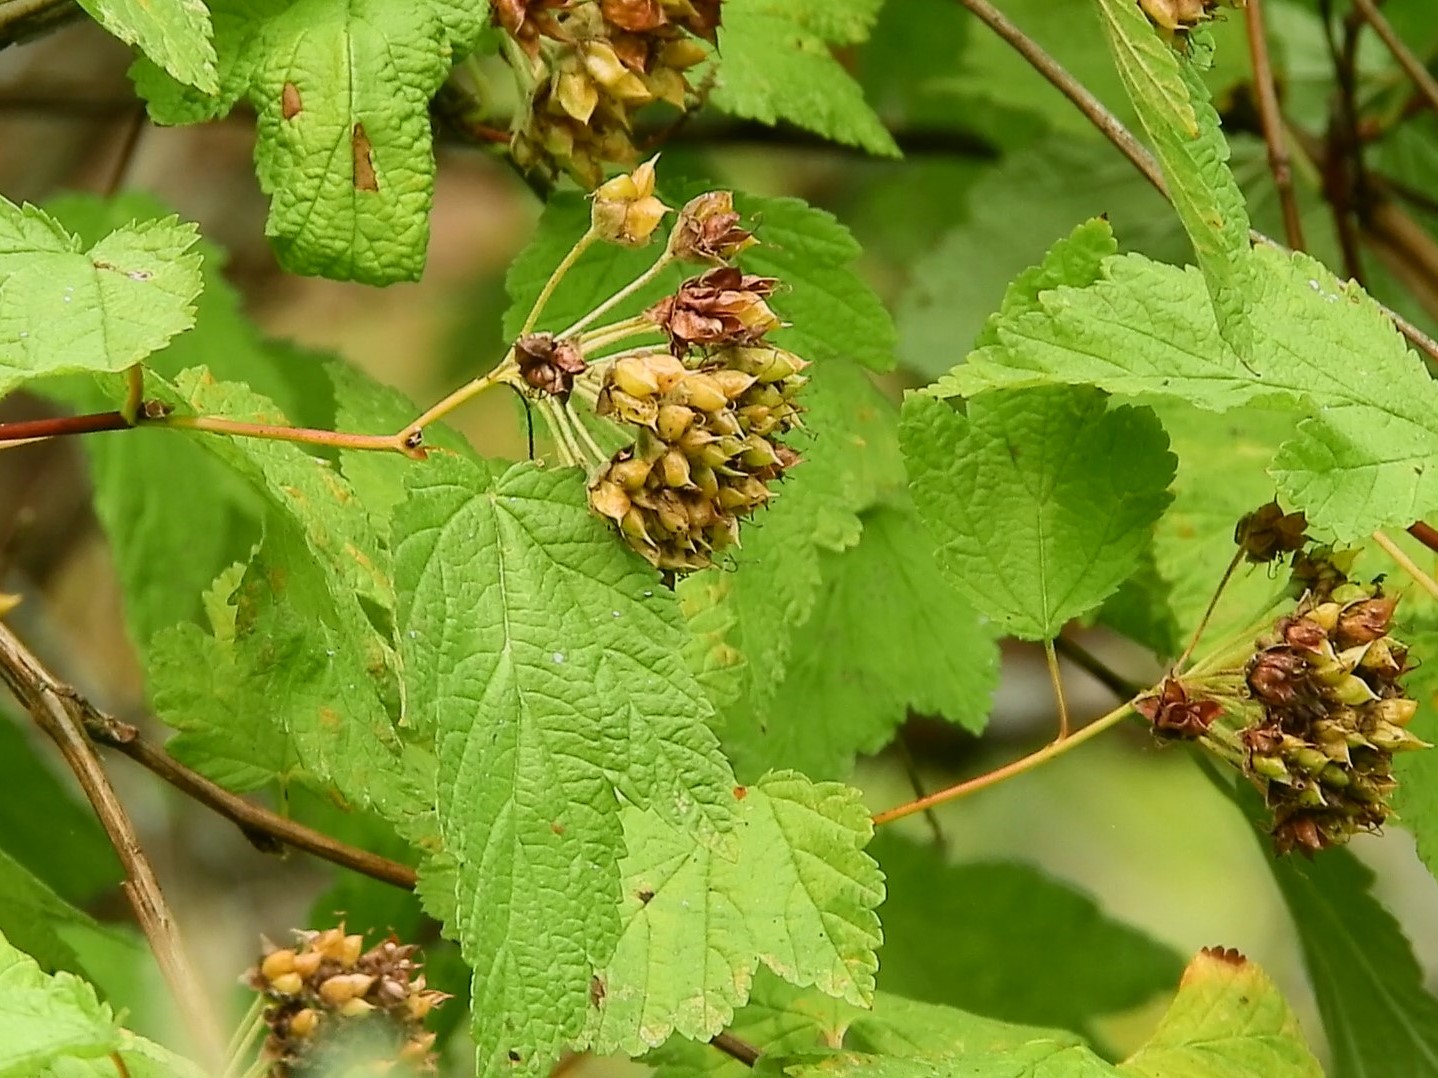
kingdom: Plantae
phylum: Tracheophyta
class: Magnoliopsida
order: Rosales
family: Rosaceae
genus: Physocarpus
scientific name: Physocarpus capitatus
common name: Pacific ninebark
